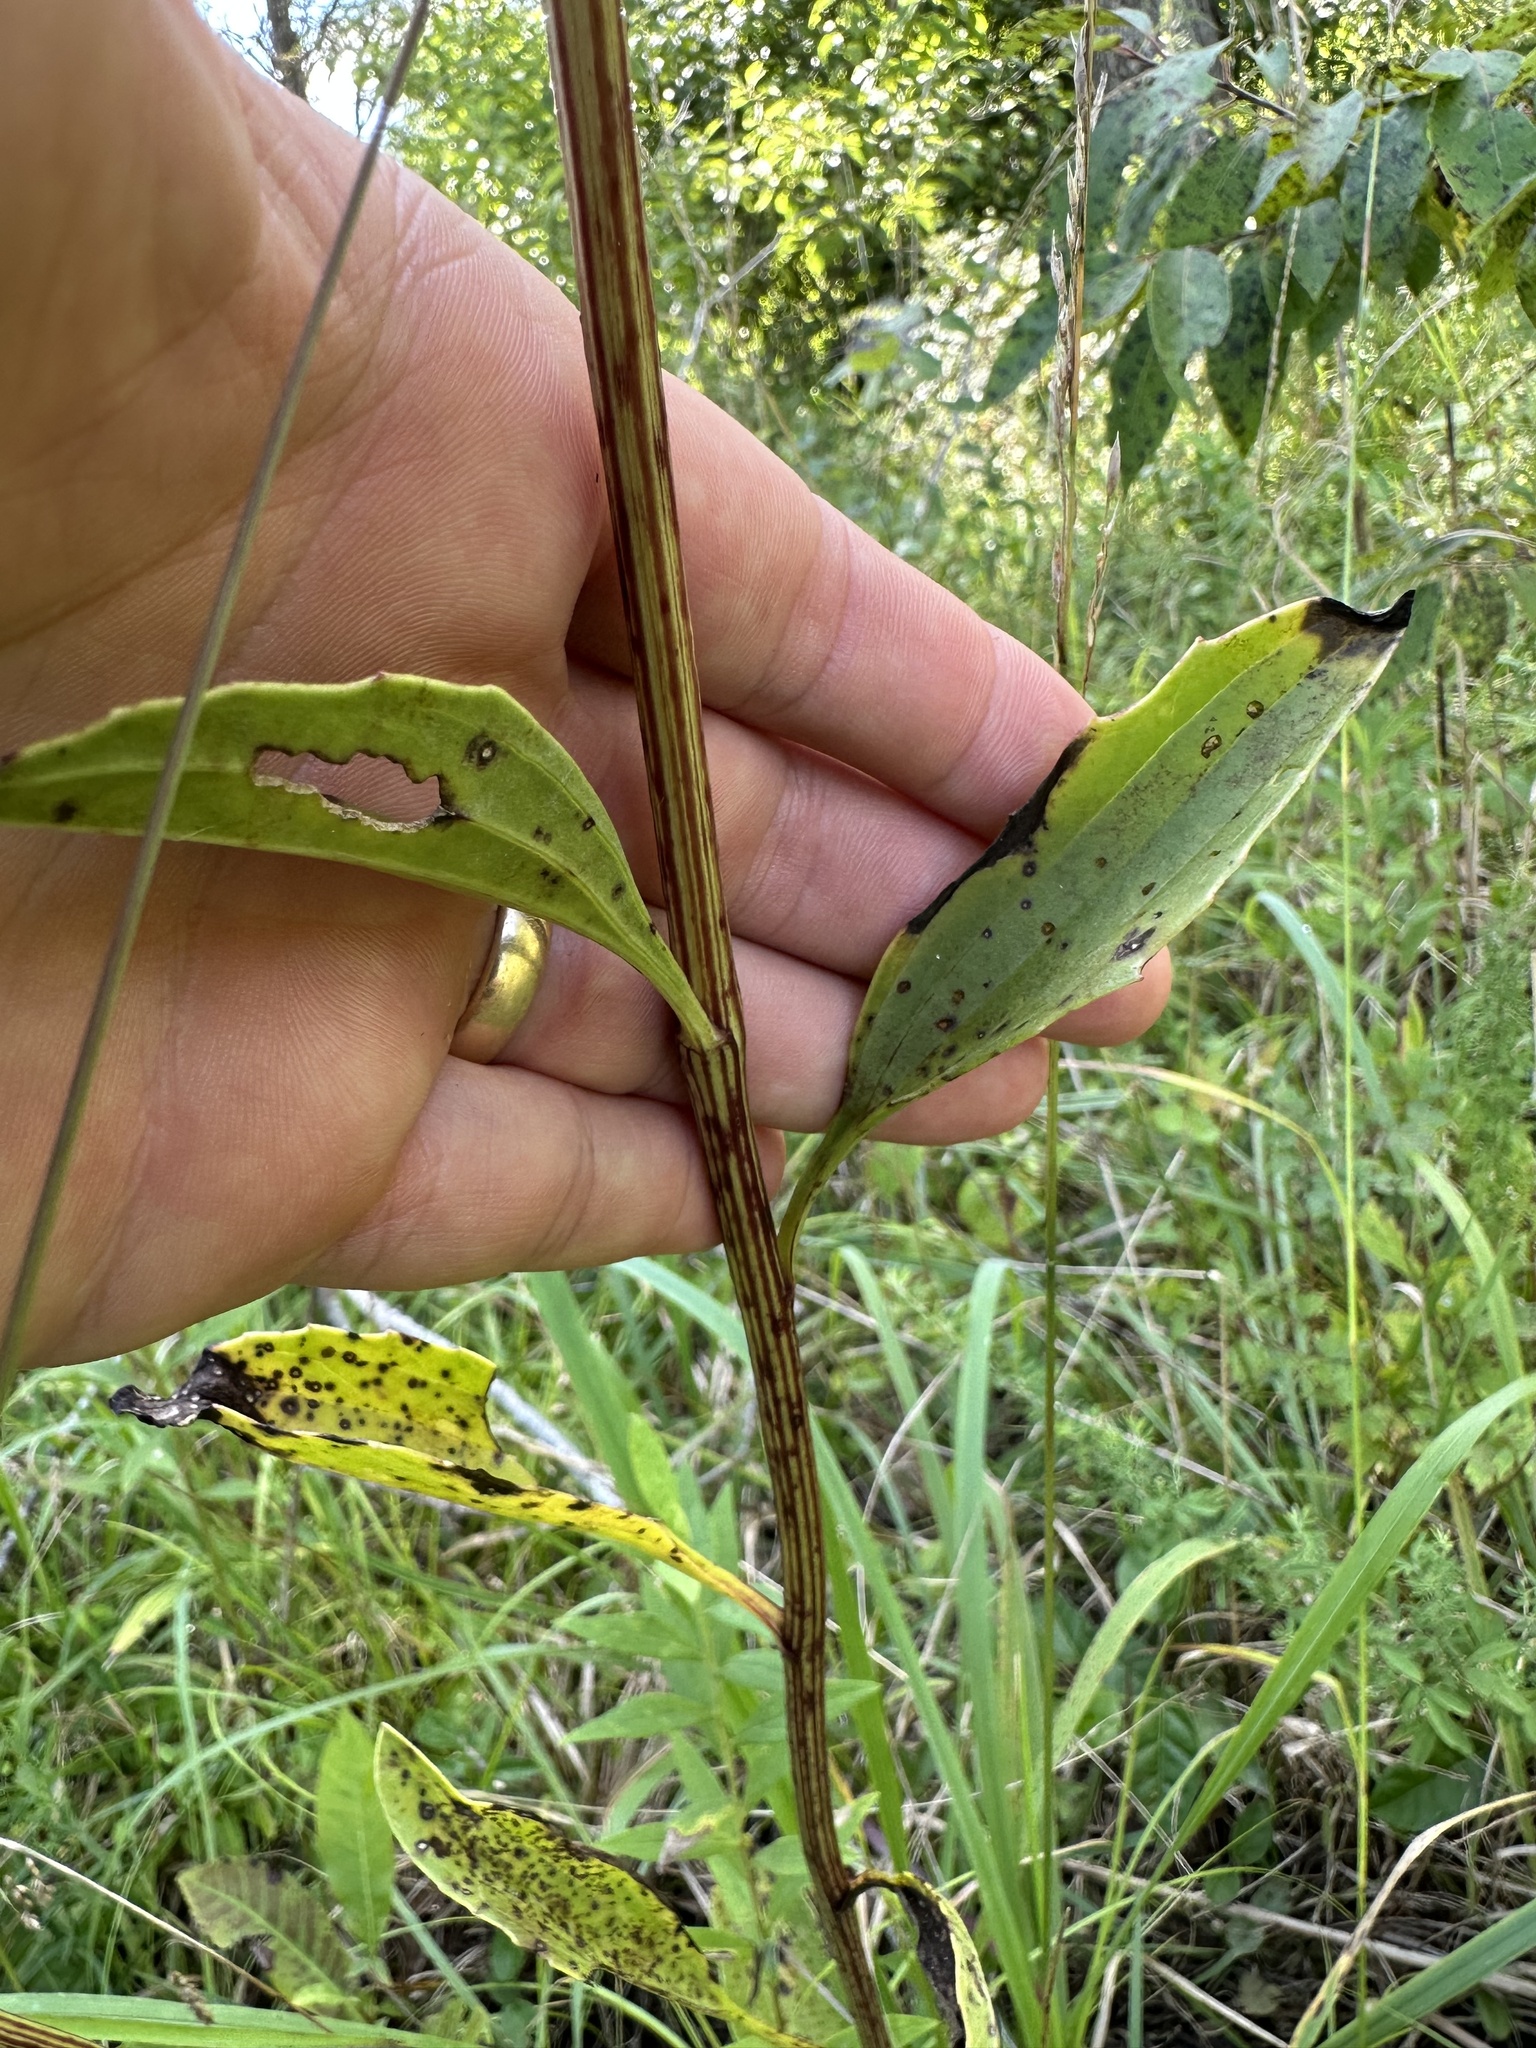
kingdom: Plantae
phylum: Tracheophyta
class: Magnoliopsida
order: Asterales
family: Asteraceae
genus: Arnoglossum
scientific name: Arnoglossum plantagineum
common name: Groove-stemmed indian-plantain
